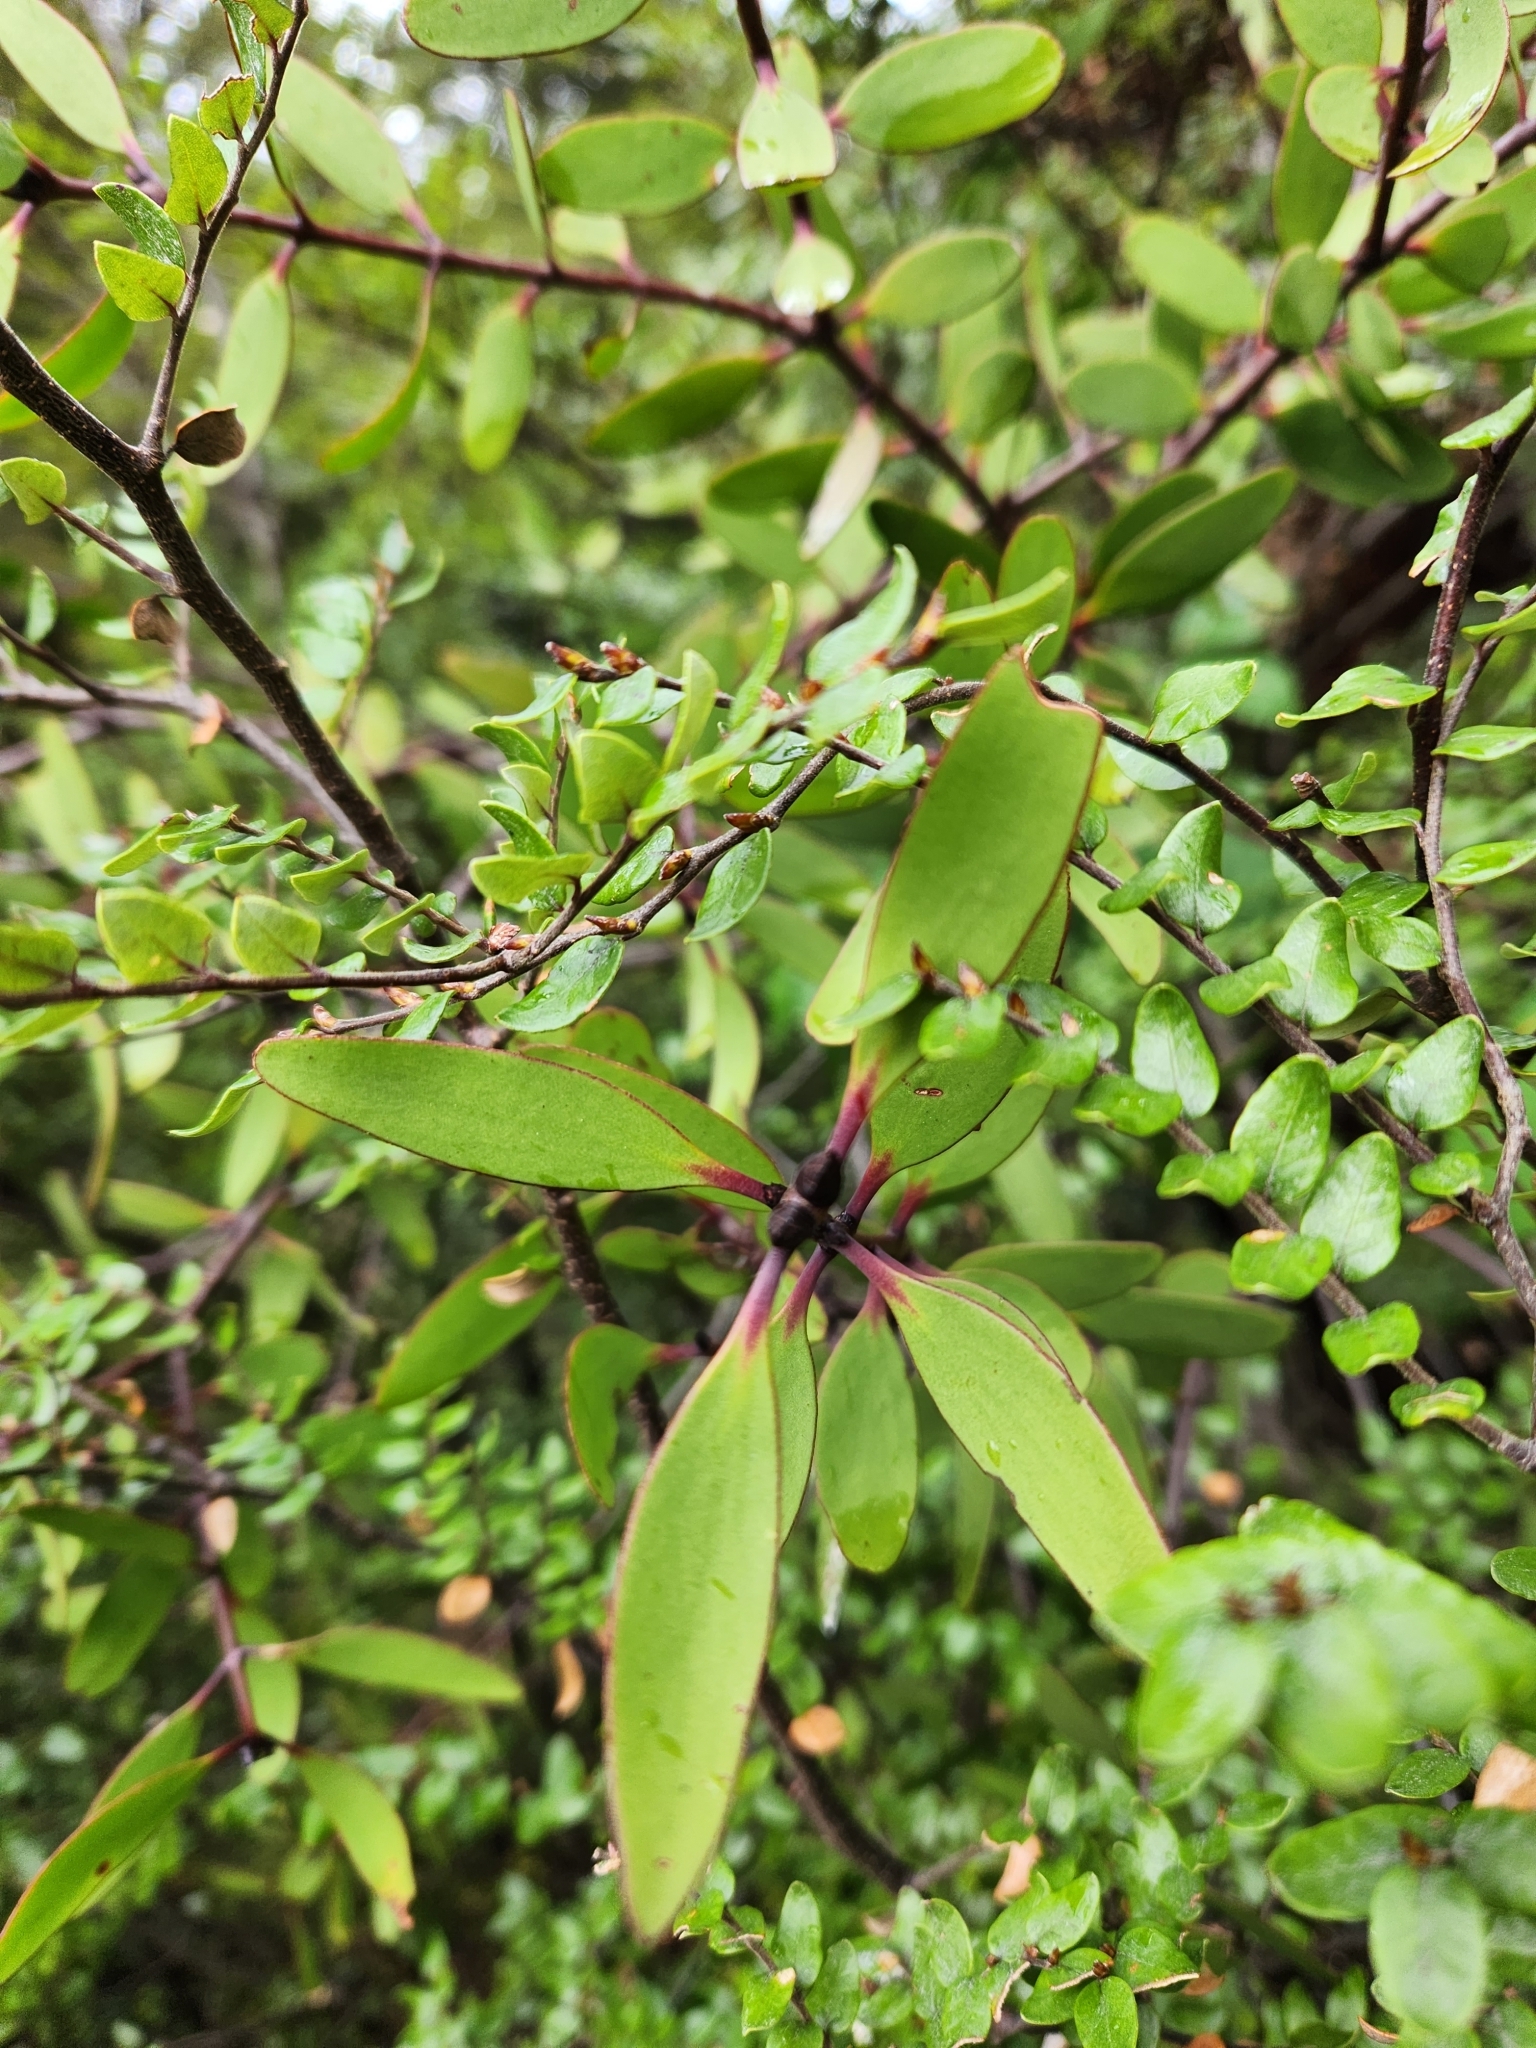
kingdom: Plantae
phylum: Tracheophyta
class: Magnoliopsida
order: Santalales
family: Loranthaceae
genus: Alepis
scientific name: Alepis flavida
